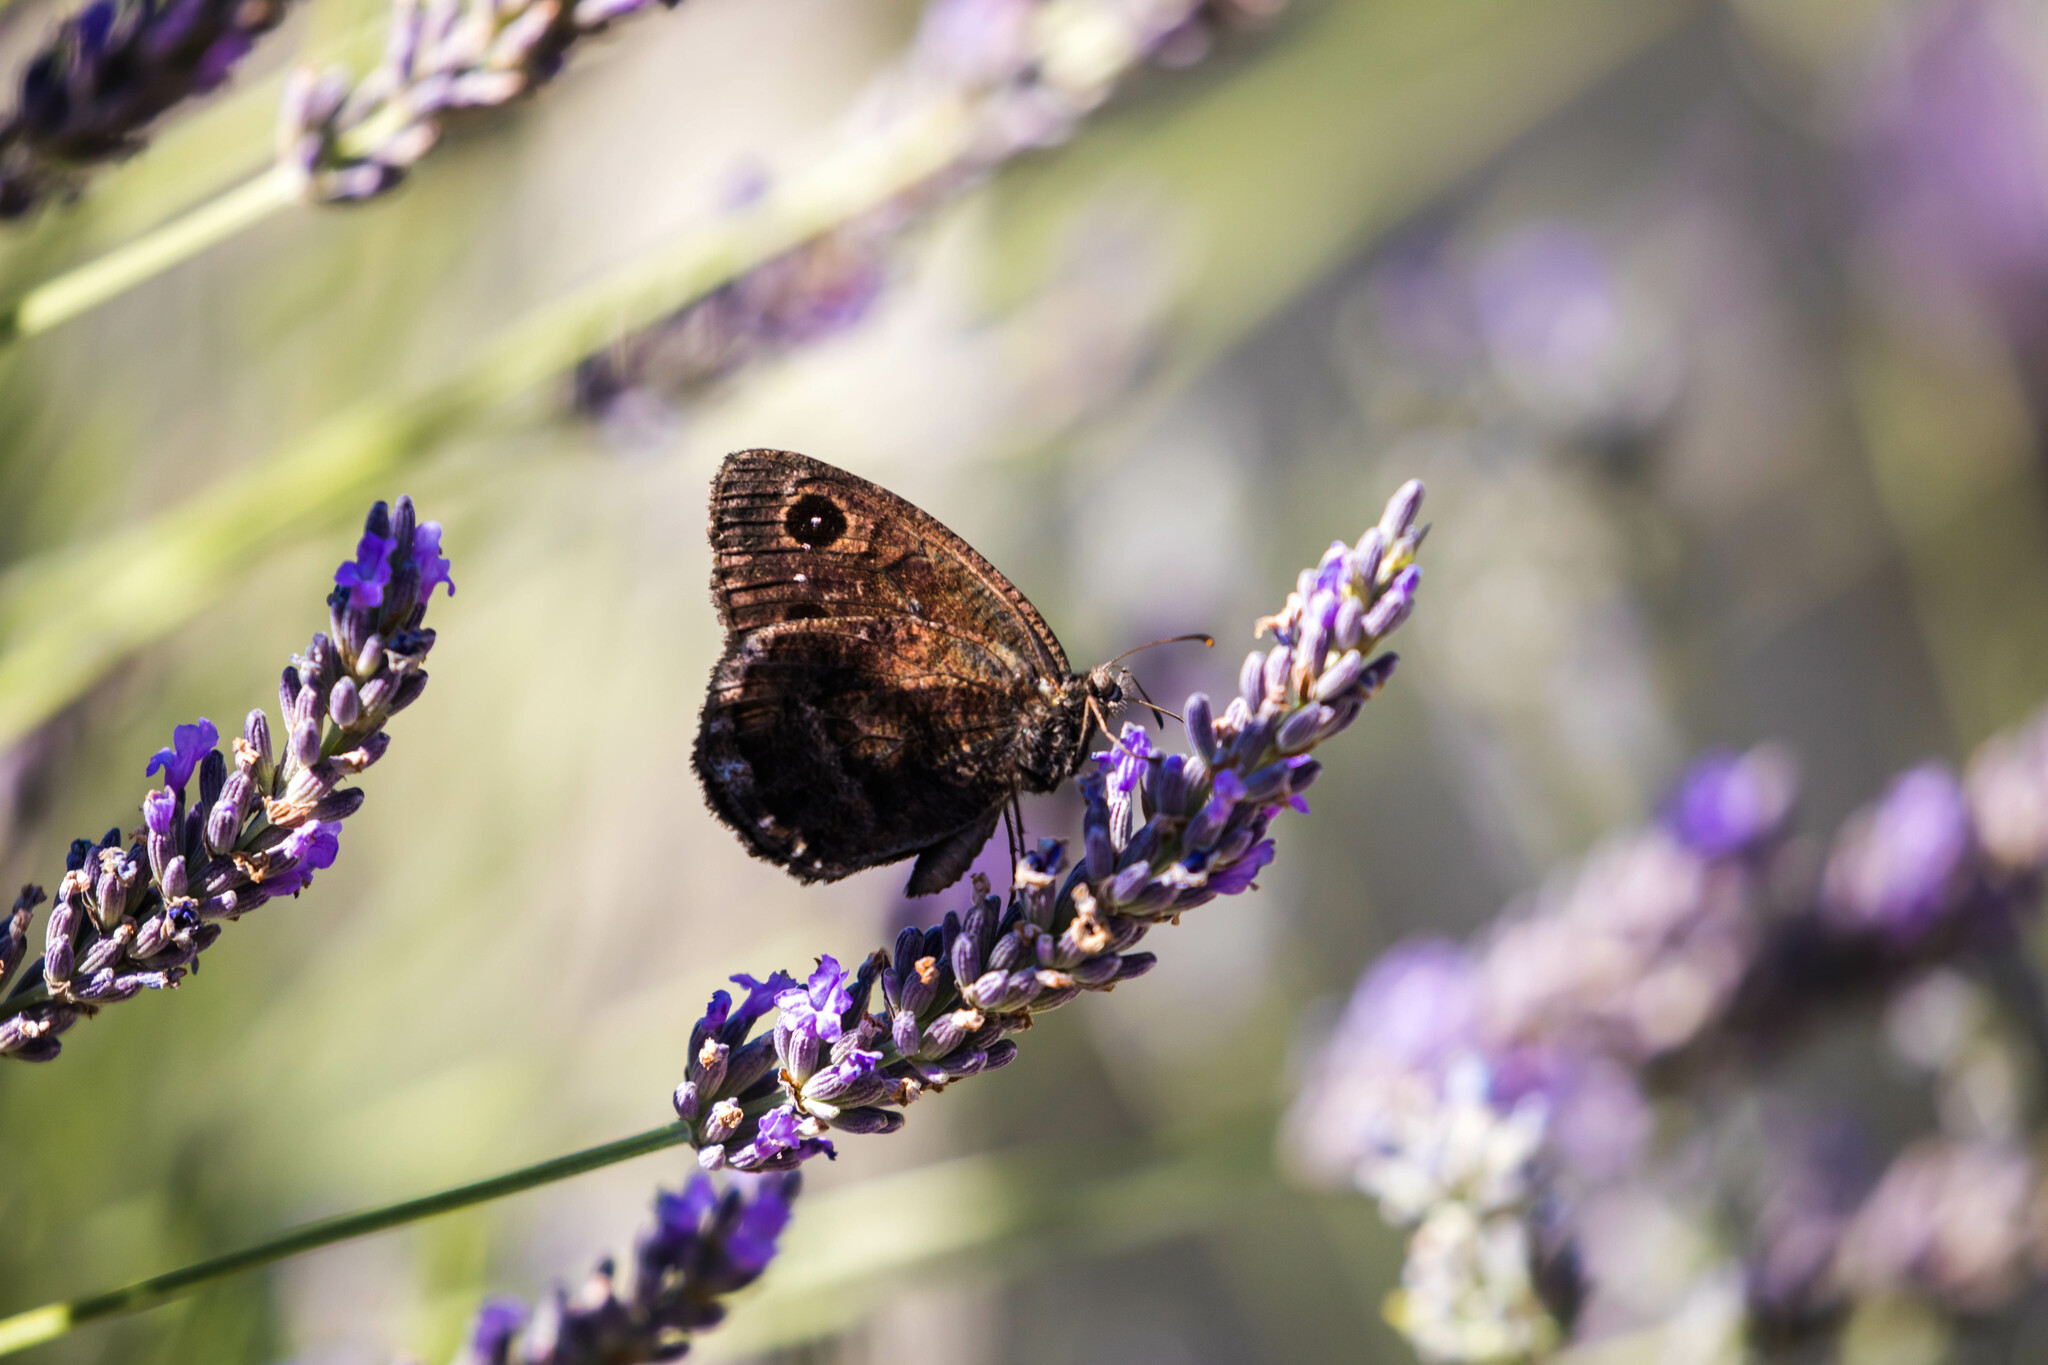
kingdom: Animalia
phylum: Arthropoda
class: Insecta
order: Lepidoptera
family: Nymphalidae
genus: Satyrus
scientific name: Satyrus ferula
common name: Great sooty satyr
